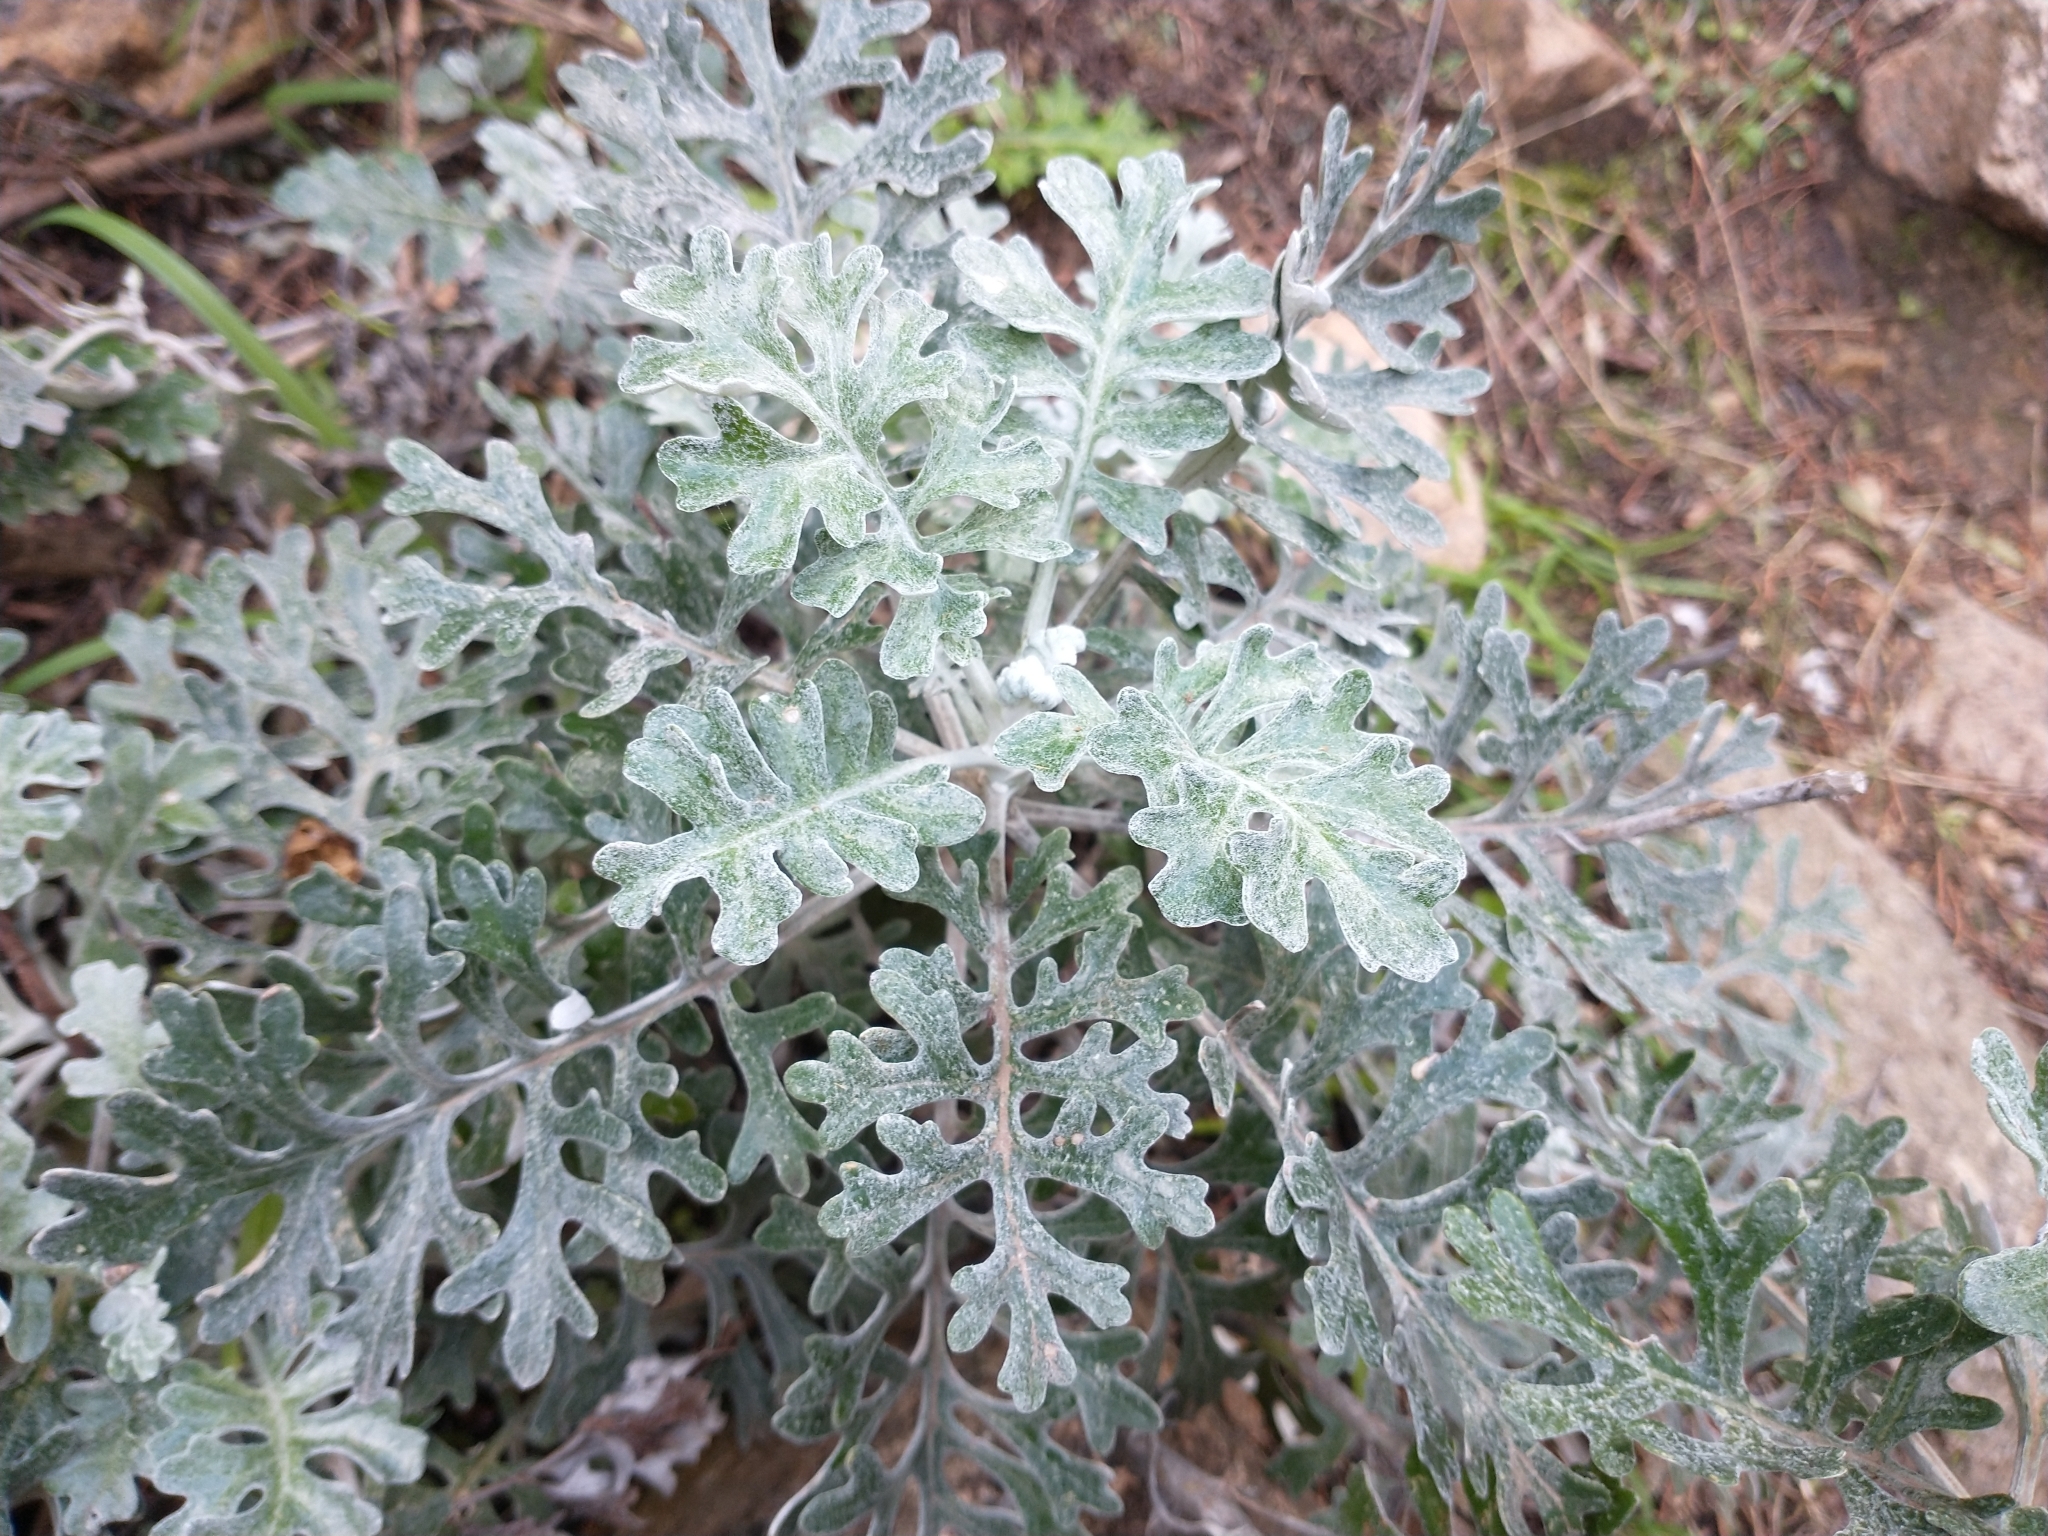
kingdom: Plantae
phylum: Tracheophyta
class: Magnoliopsida
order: Asterales
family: Asteraceae
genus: Jacobaea
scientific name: Jacobaea maritima
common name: Silver ragwort
